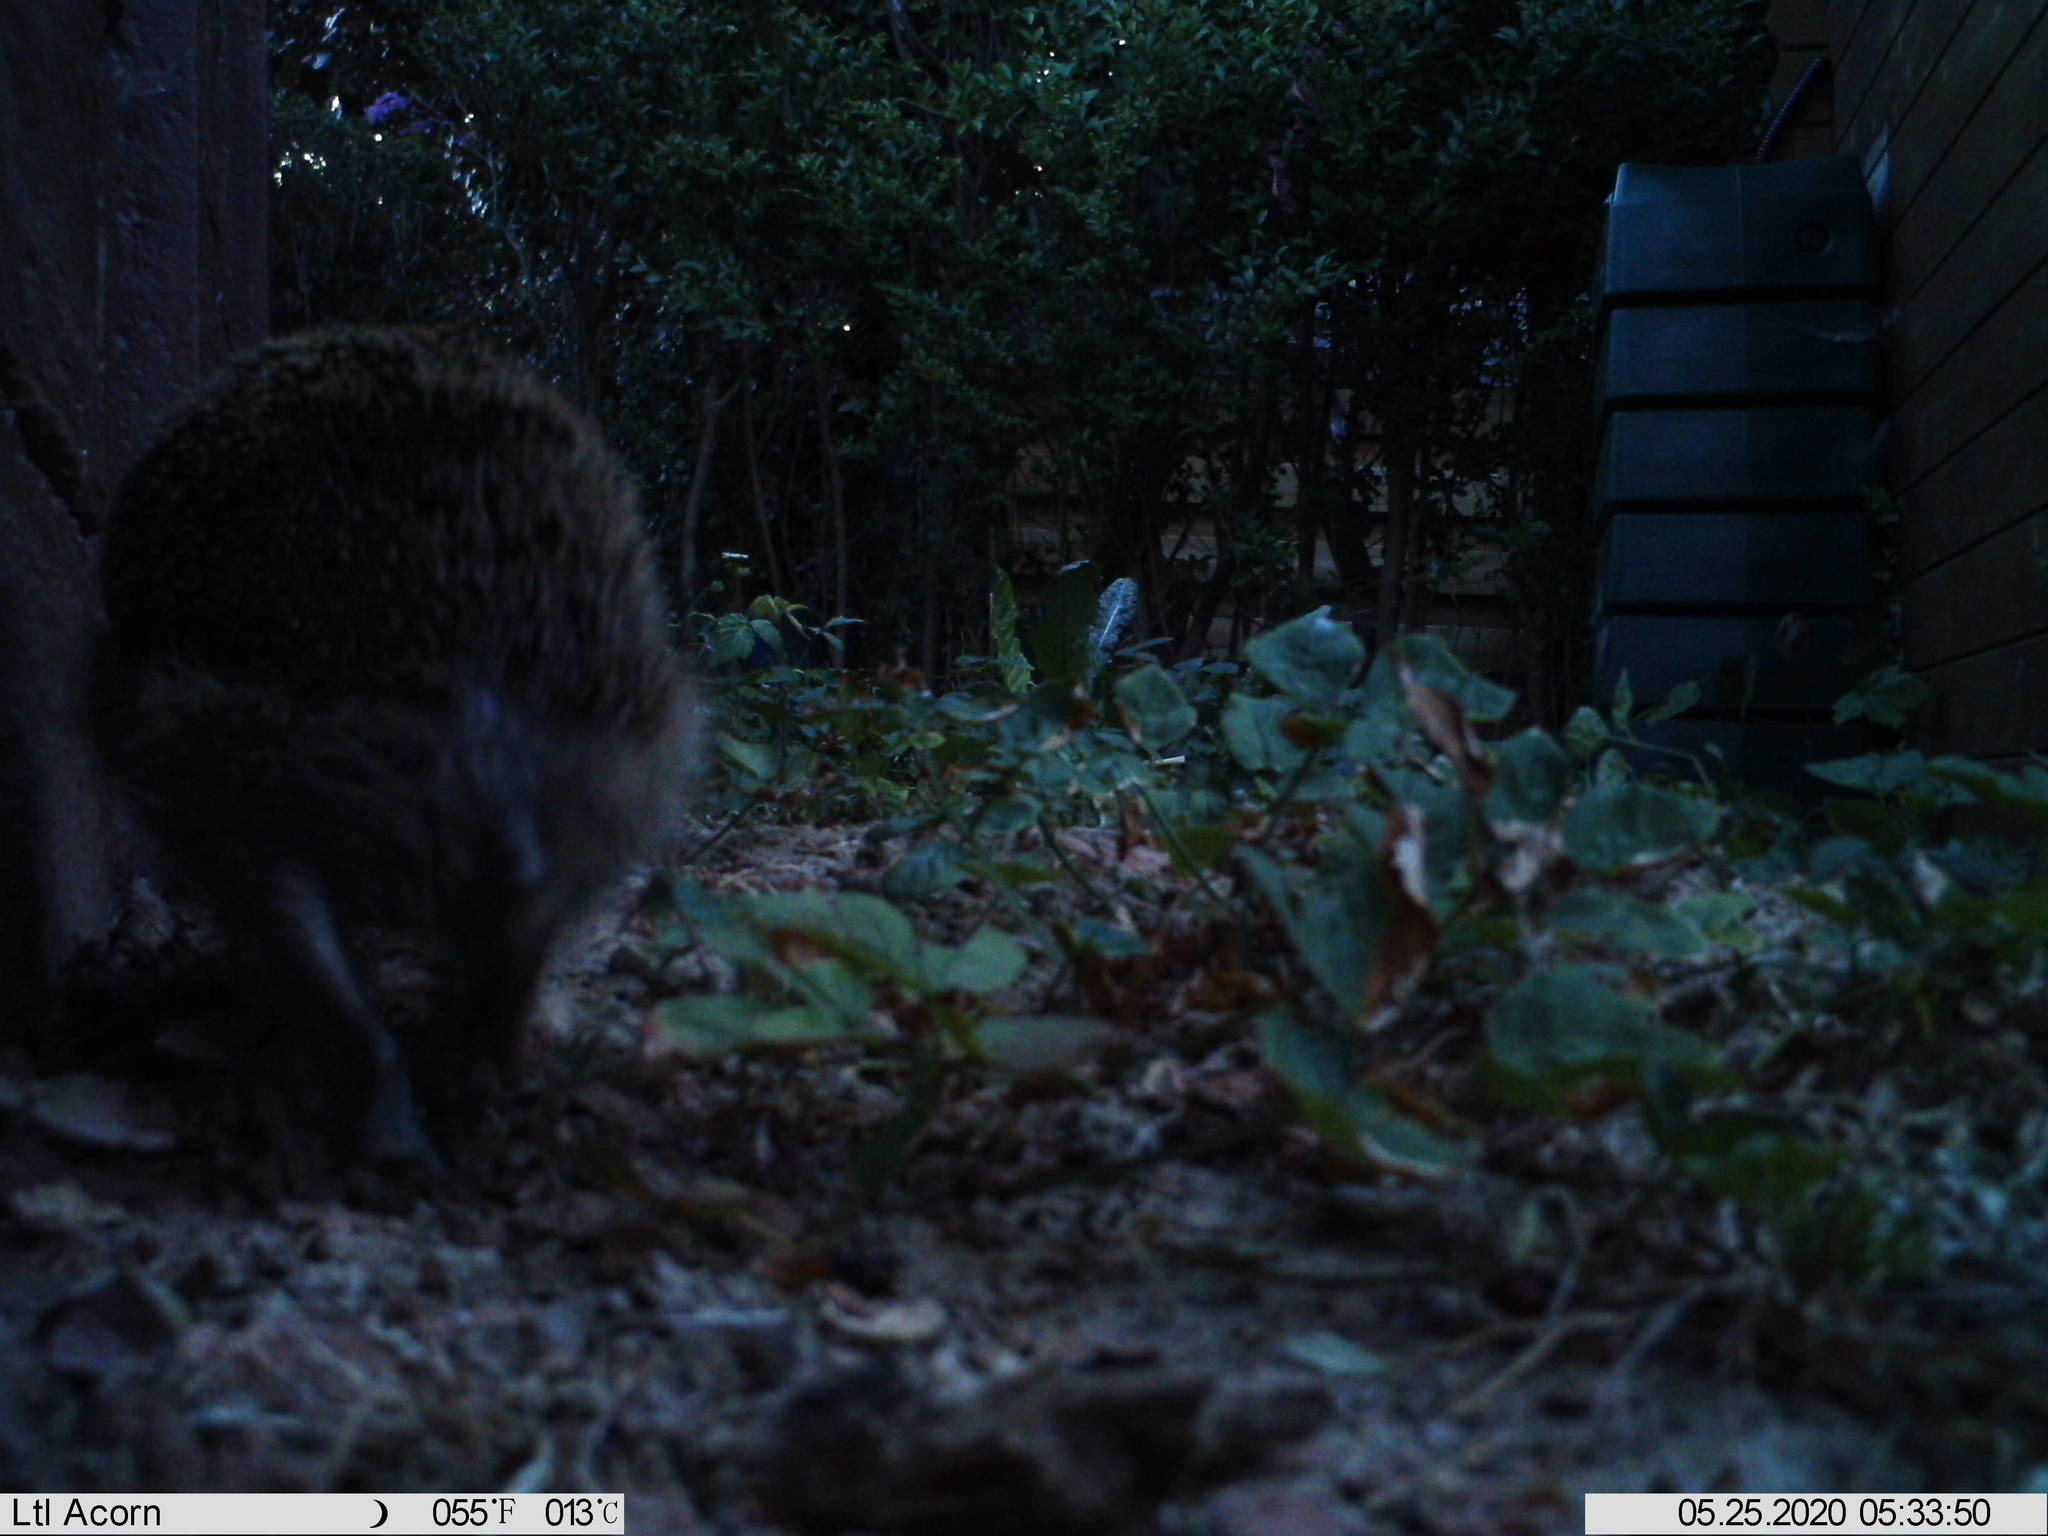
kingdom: Animalia
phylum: Chordata
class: Mammalia
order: Erinaceomorpha
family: Erinaceidae
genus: Erinaceus
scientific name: Erinaceus europaeus
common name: West european hedgehog
